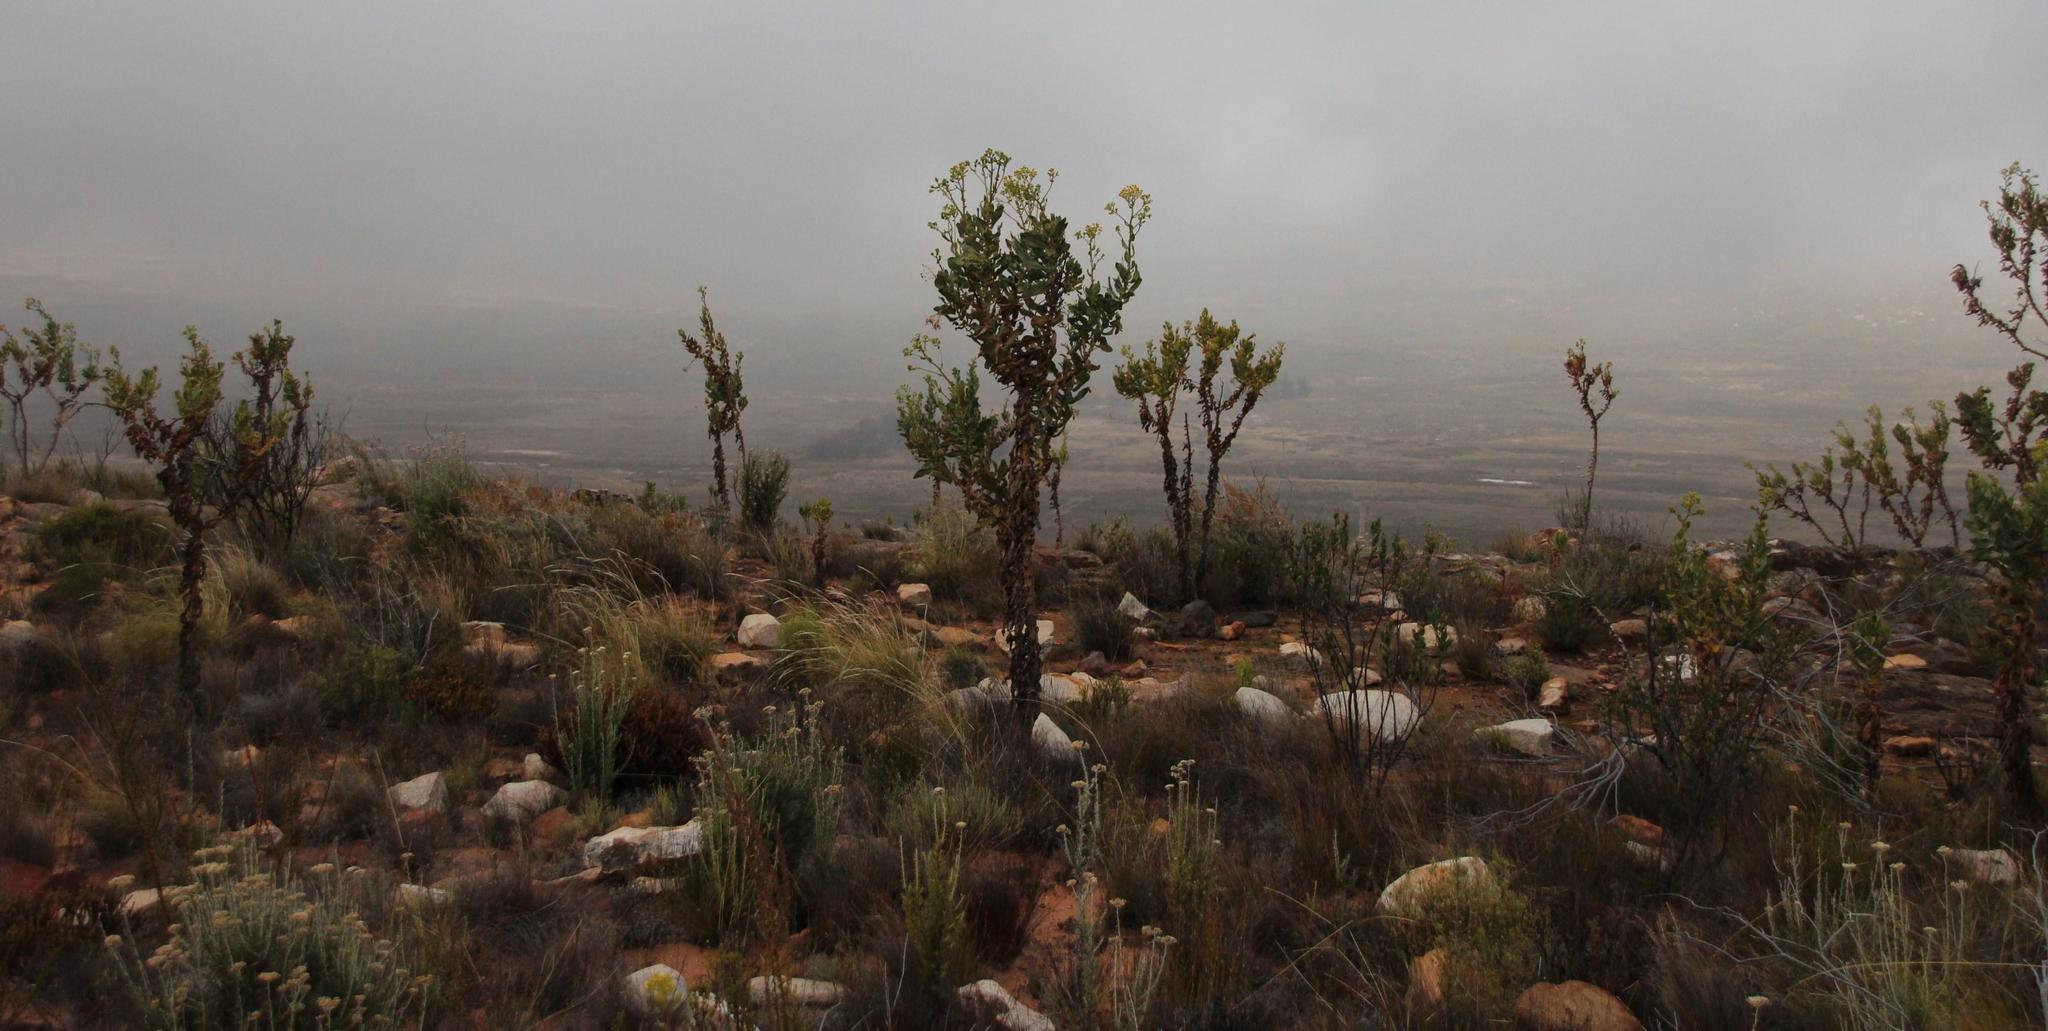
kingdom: Plantae
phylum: Tracheophyta
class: Magnoliopsida
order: Asterales
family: Asteraceae
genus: Othonna
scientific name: Othonna parviflora
